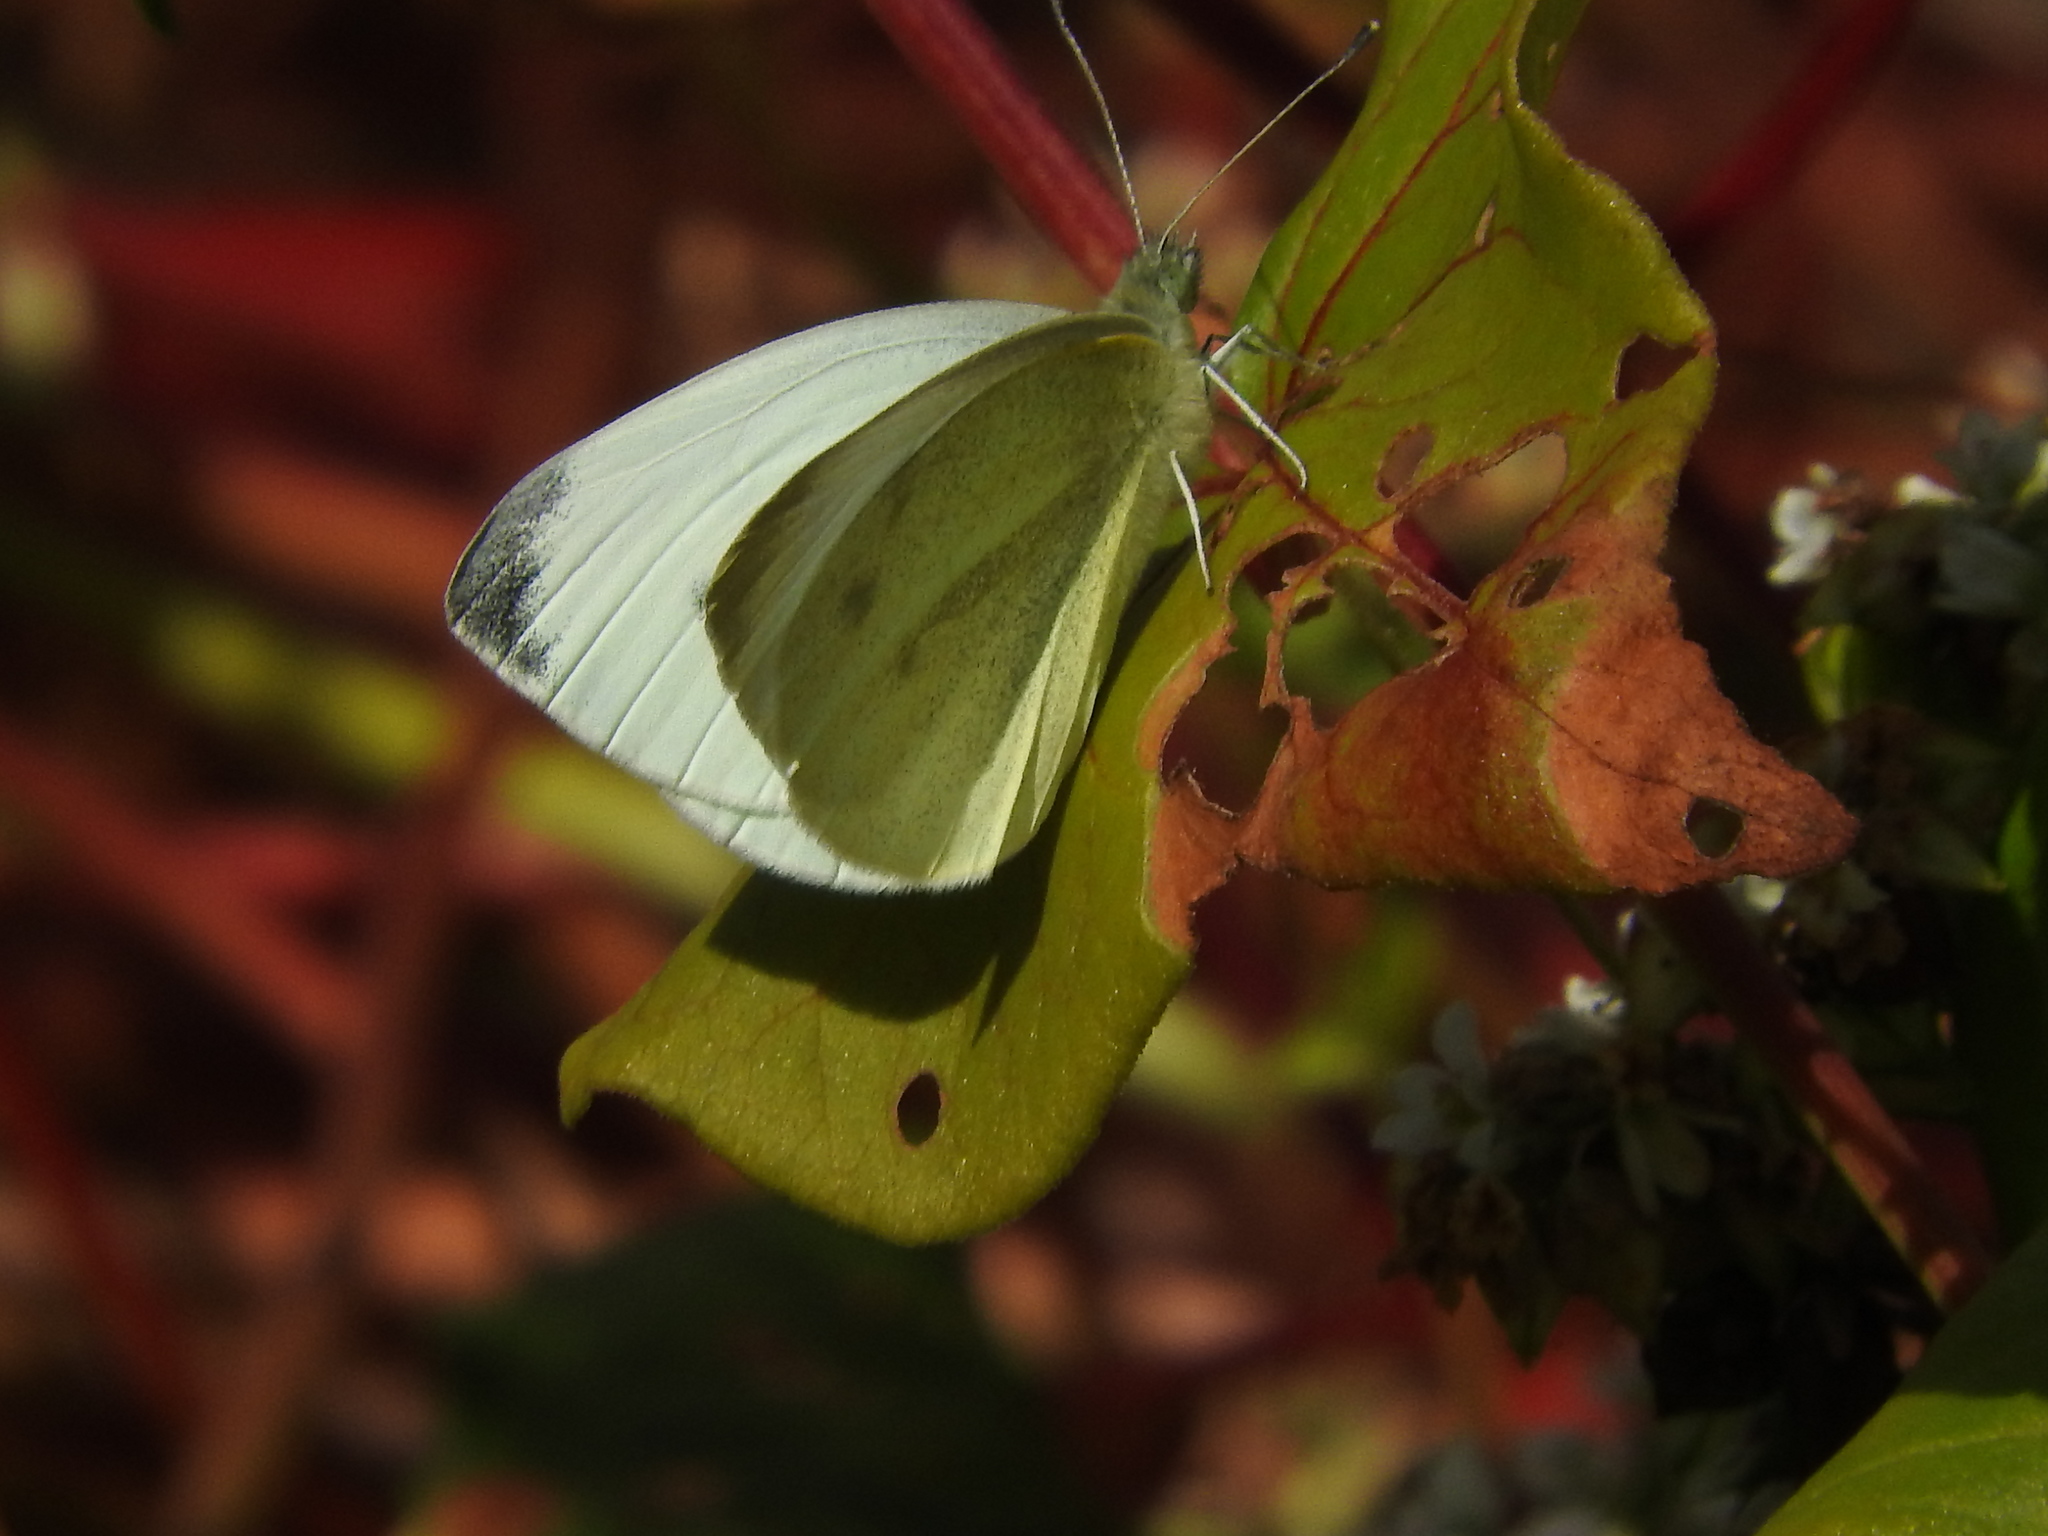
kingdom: Animalia
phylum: Arthropoda
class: Insecta
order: Lepidoptera
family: Pieridae
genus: Pieris
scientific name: Pieris rapae
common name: Small white
